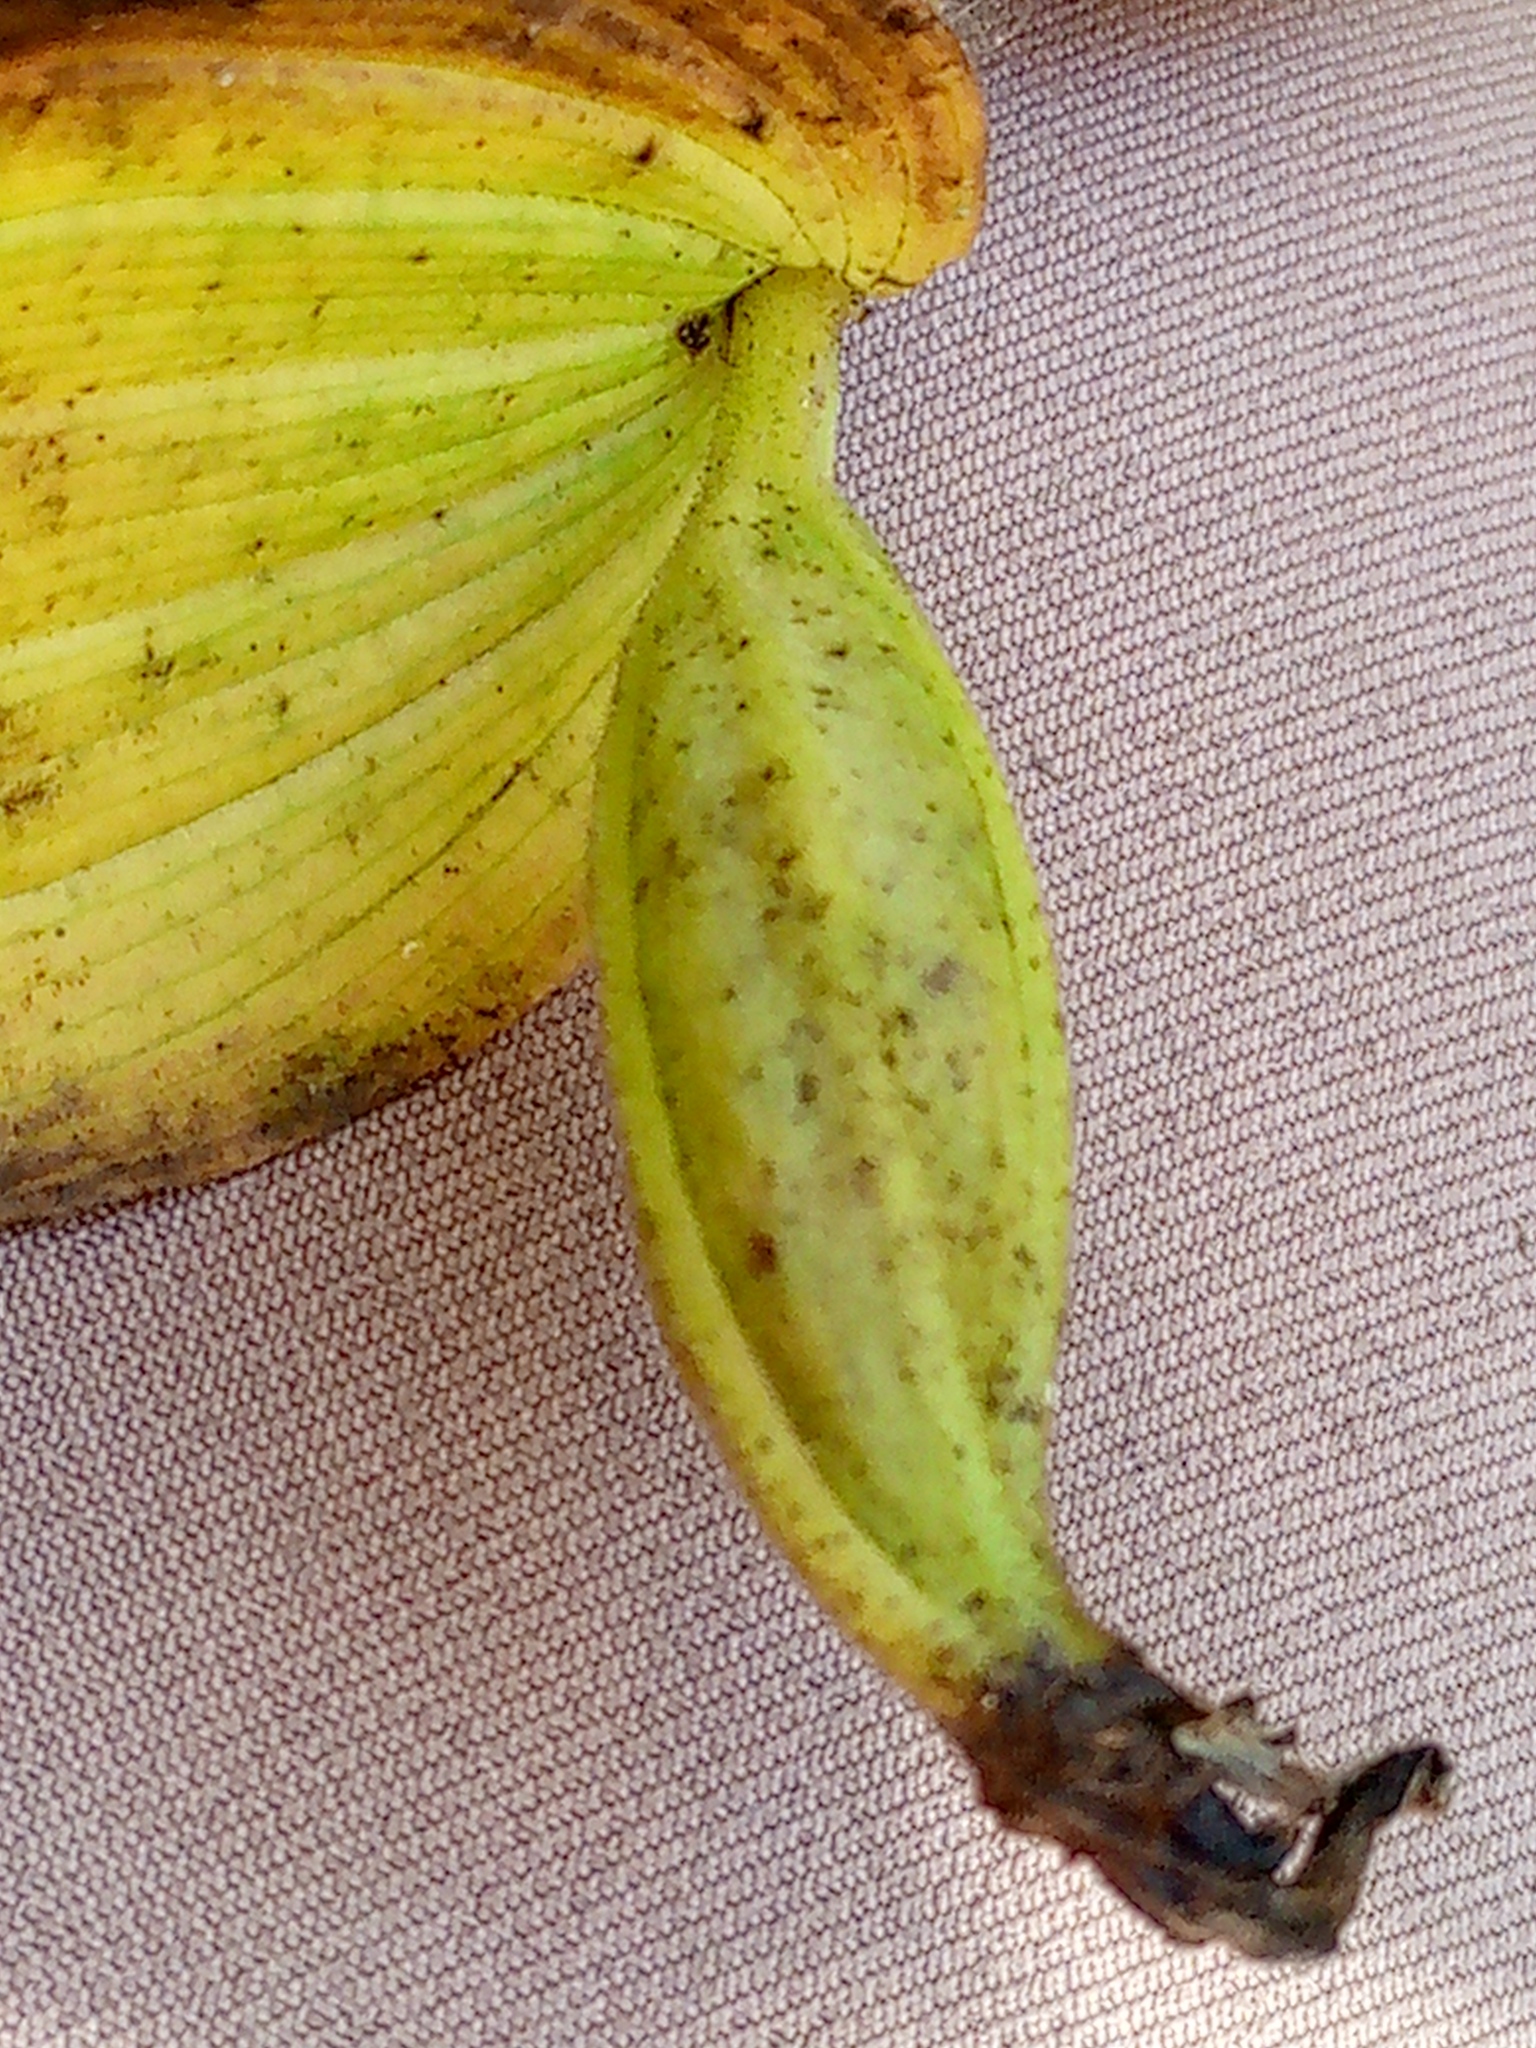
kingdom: Plantae
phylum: Tracheophyta
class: Liliopsida
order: Asparagales
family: Orchidaceae
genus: Cypripedium
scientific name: Cypripedium calceolus
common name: Lady's-slipper
